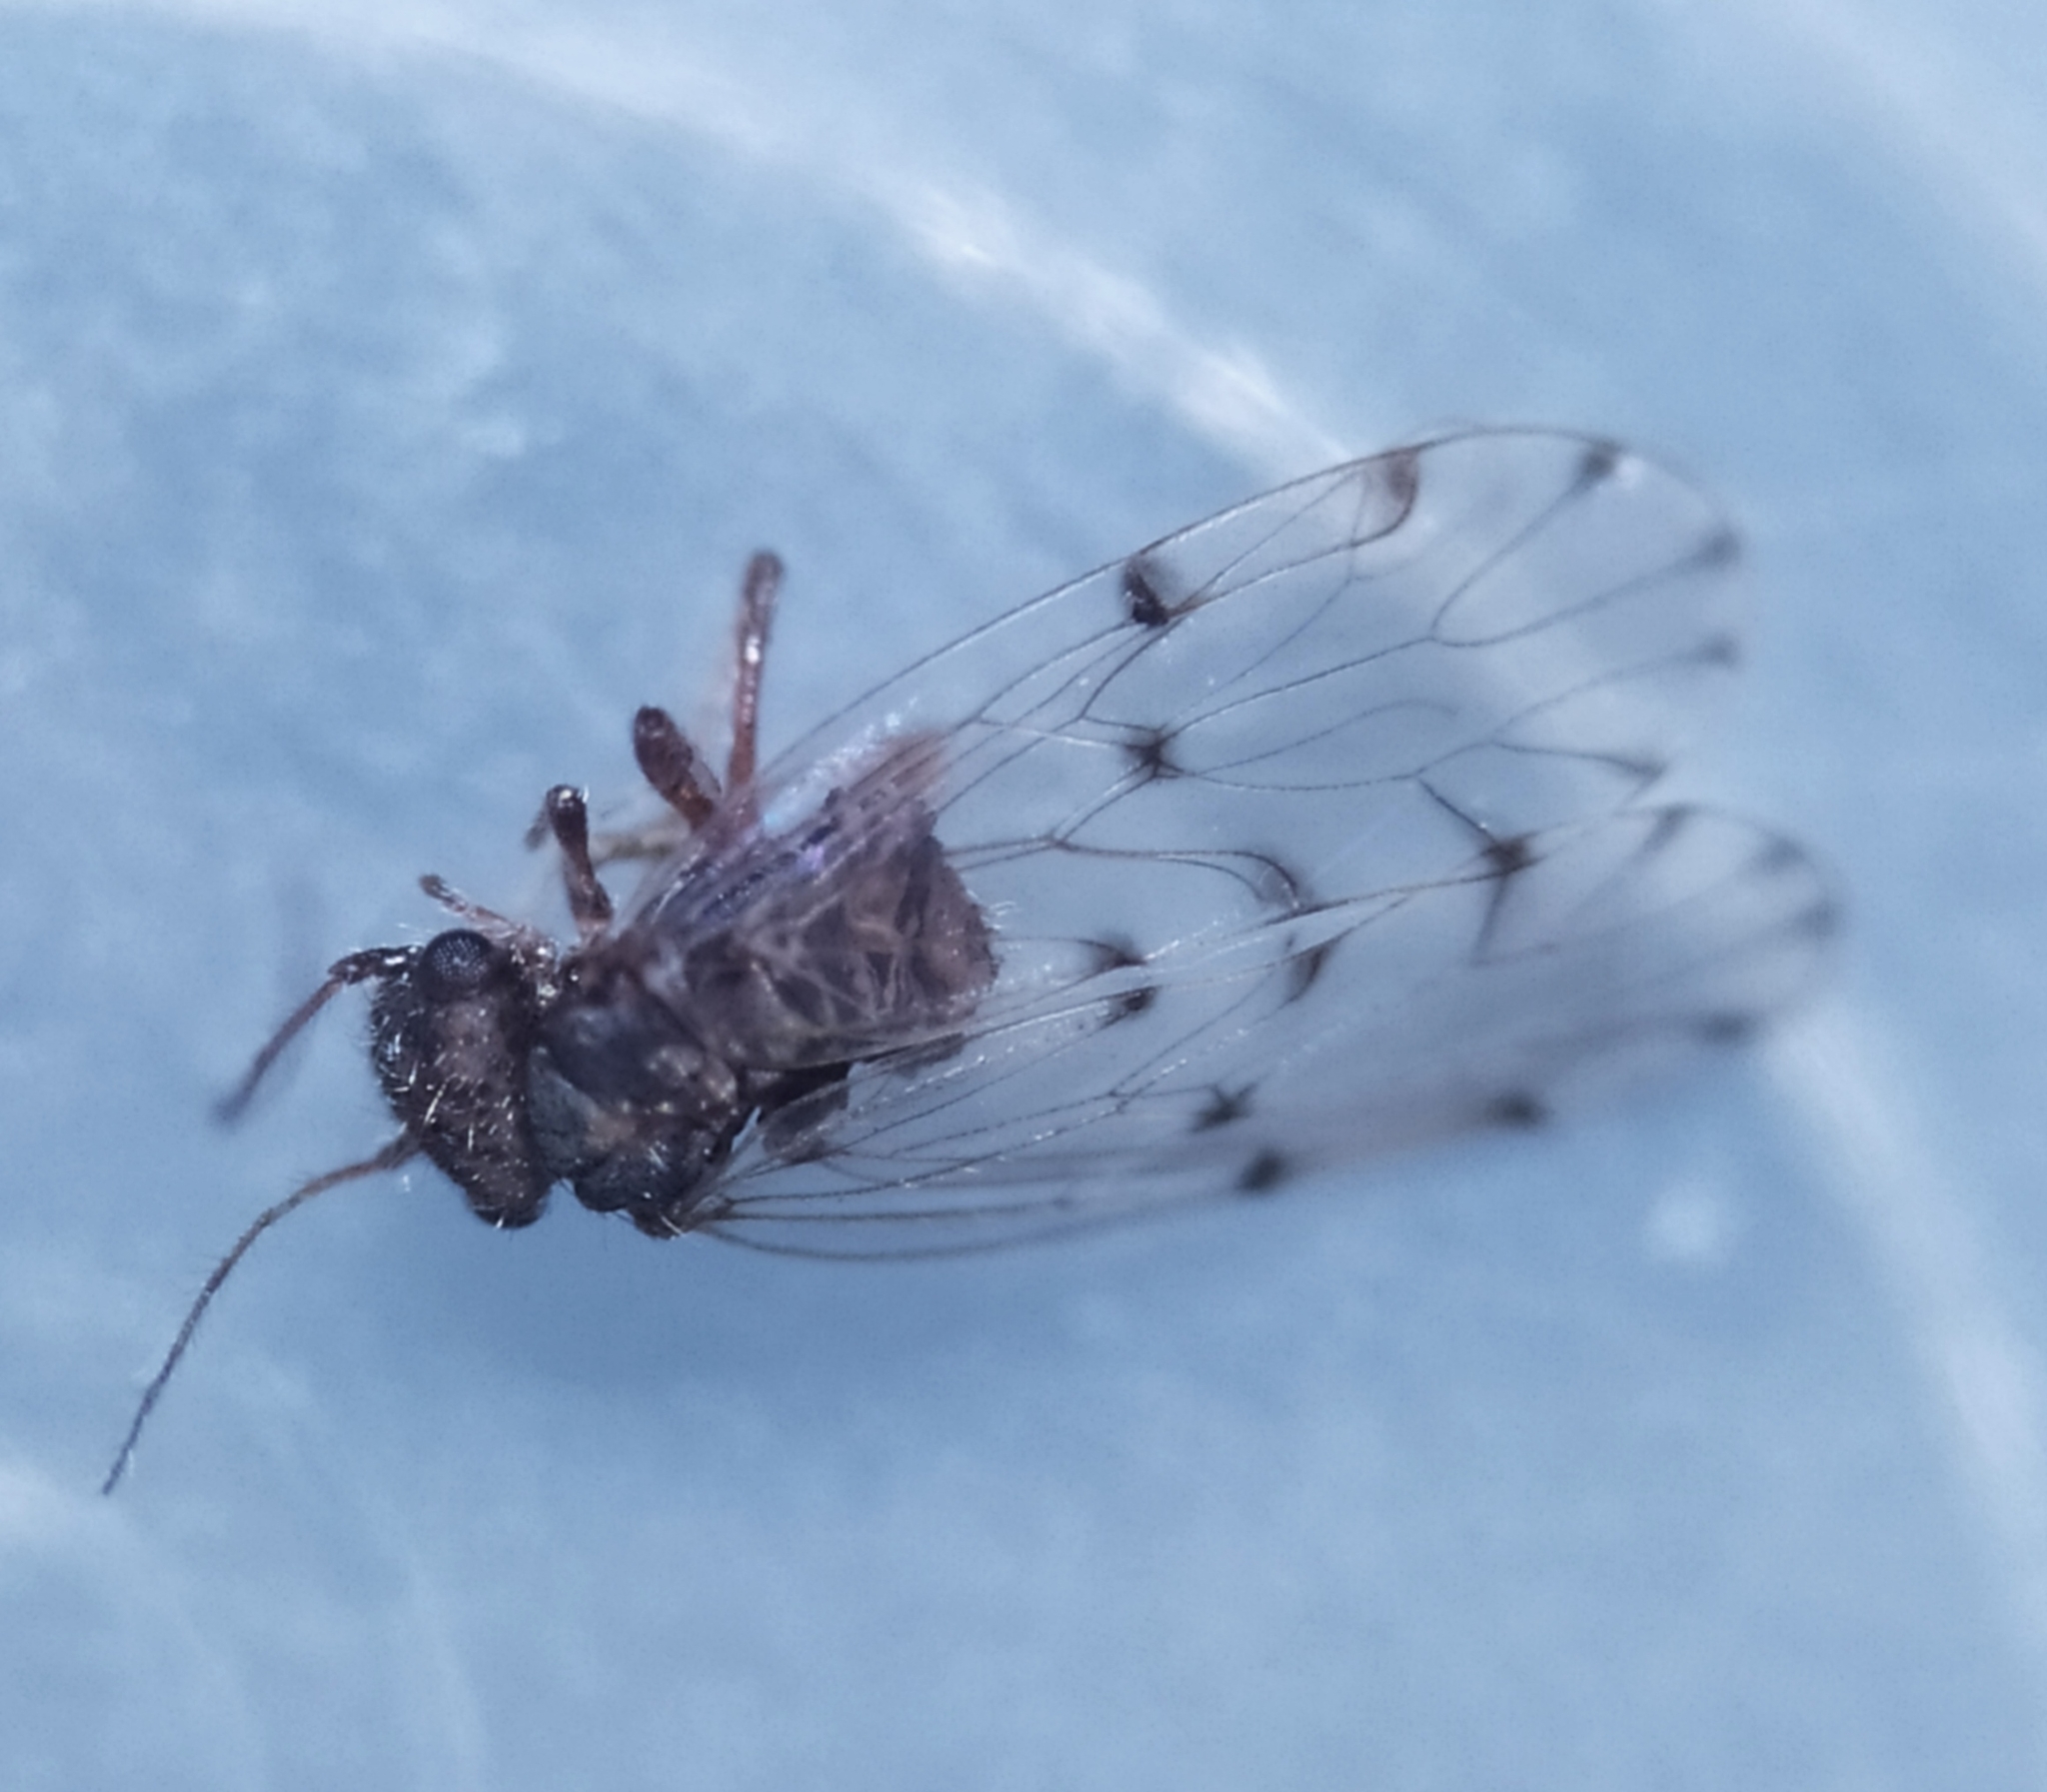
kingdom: Animalia
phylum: Arthropoda
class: Insecta
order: Psocodea
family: Ectopsocidae
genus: Ectopsocus
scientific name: Ectopsocus petersi
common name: Medium-sized bark louse
